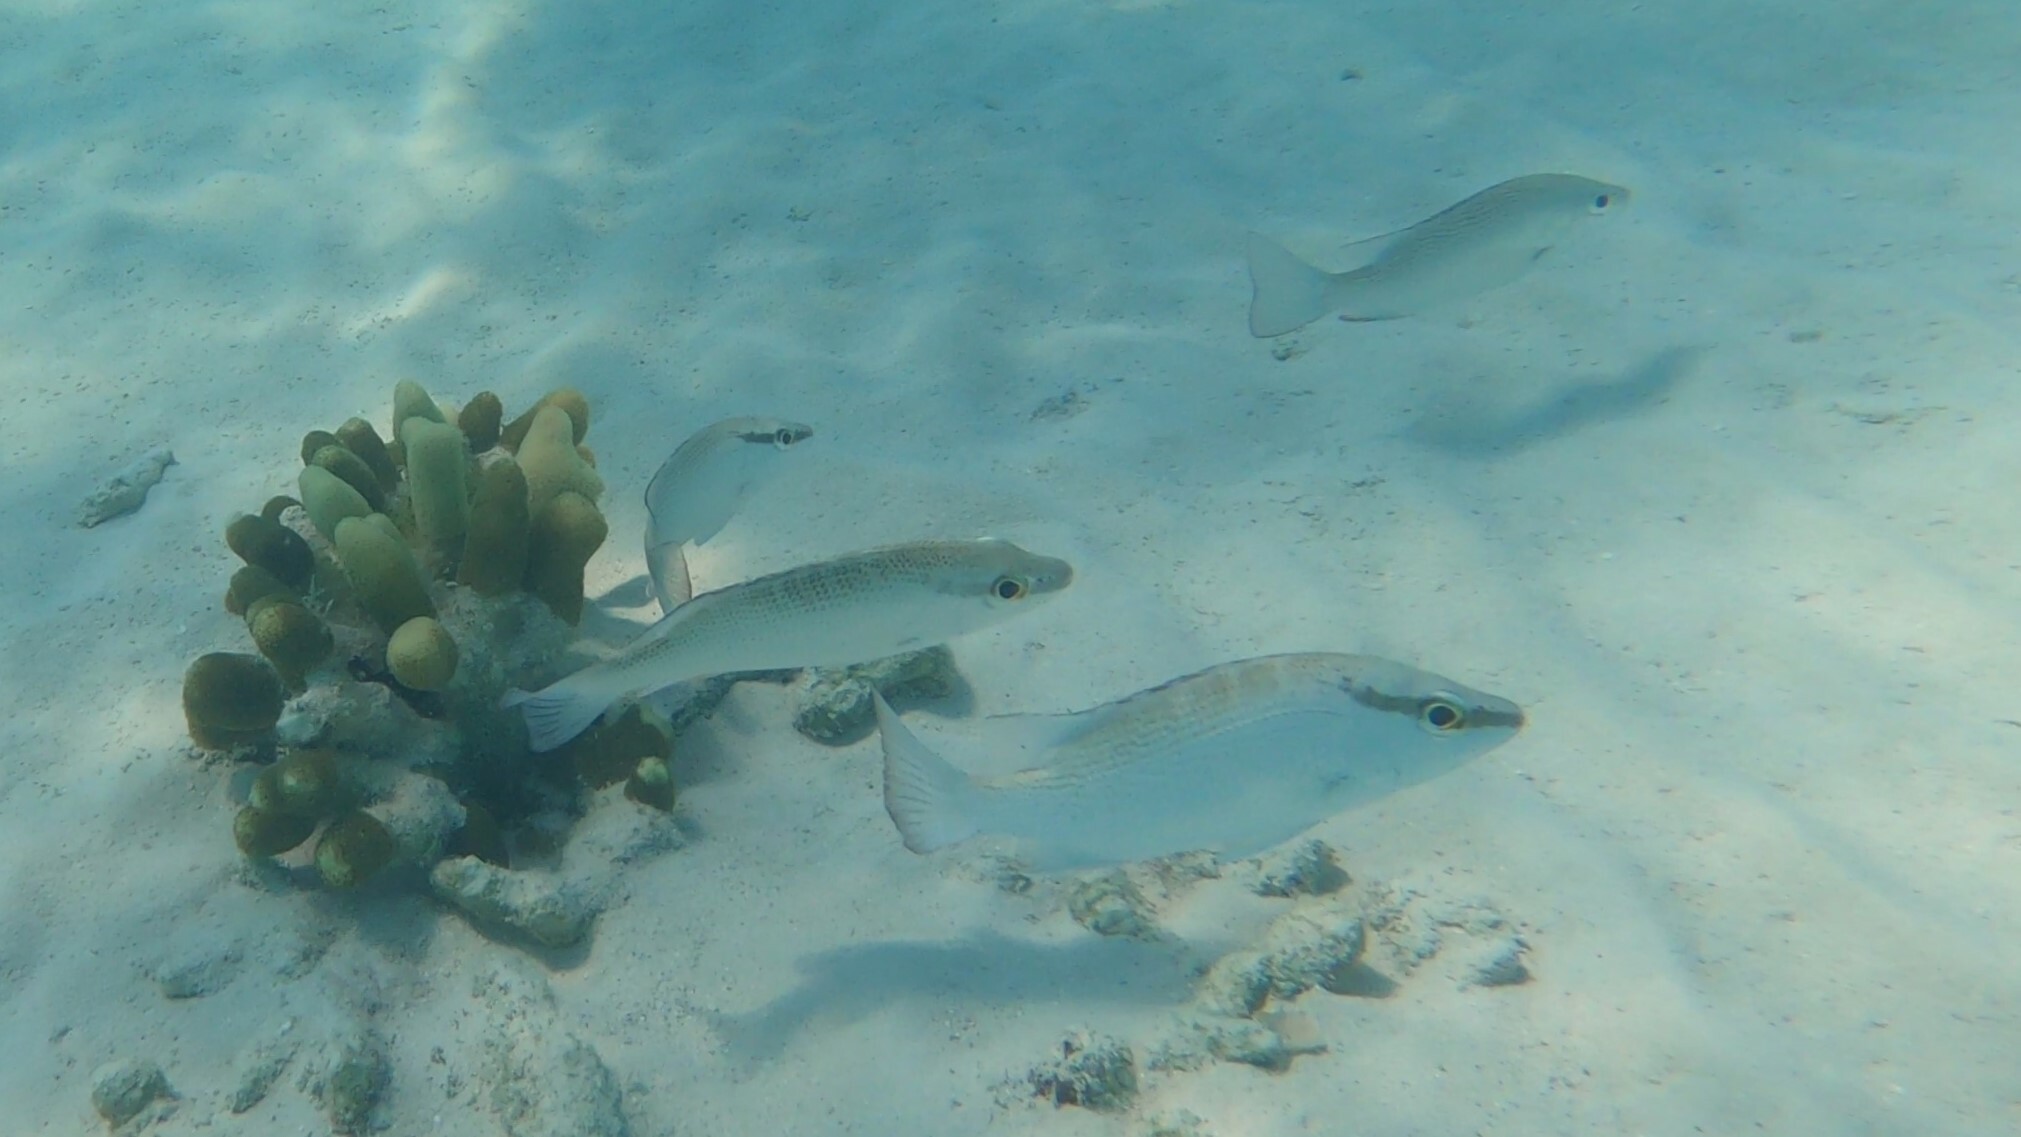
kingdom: Animalia
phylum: Chordata
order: Perciformes
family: Lutjanidae
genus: Lutjanus
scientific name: Lutjanus griseus
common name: Gray snapper
